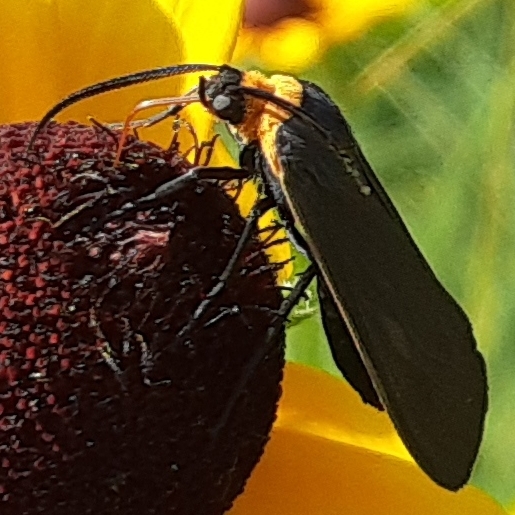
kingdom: Animalia
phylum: Arthropoda
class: Insecta
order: Lepidoptera
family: Erebidae
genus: Cisseps
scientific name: Cisseps fulvicollis
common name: Yellow-collared scape moth
